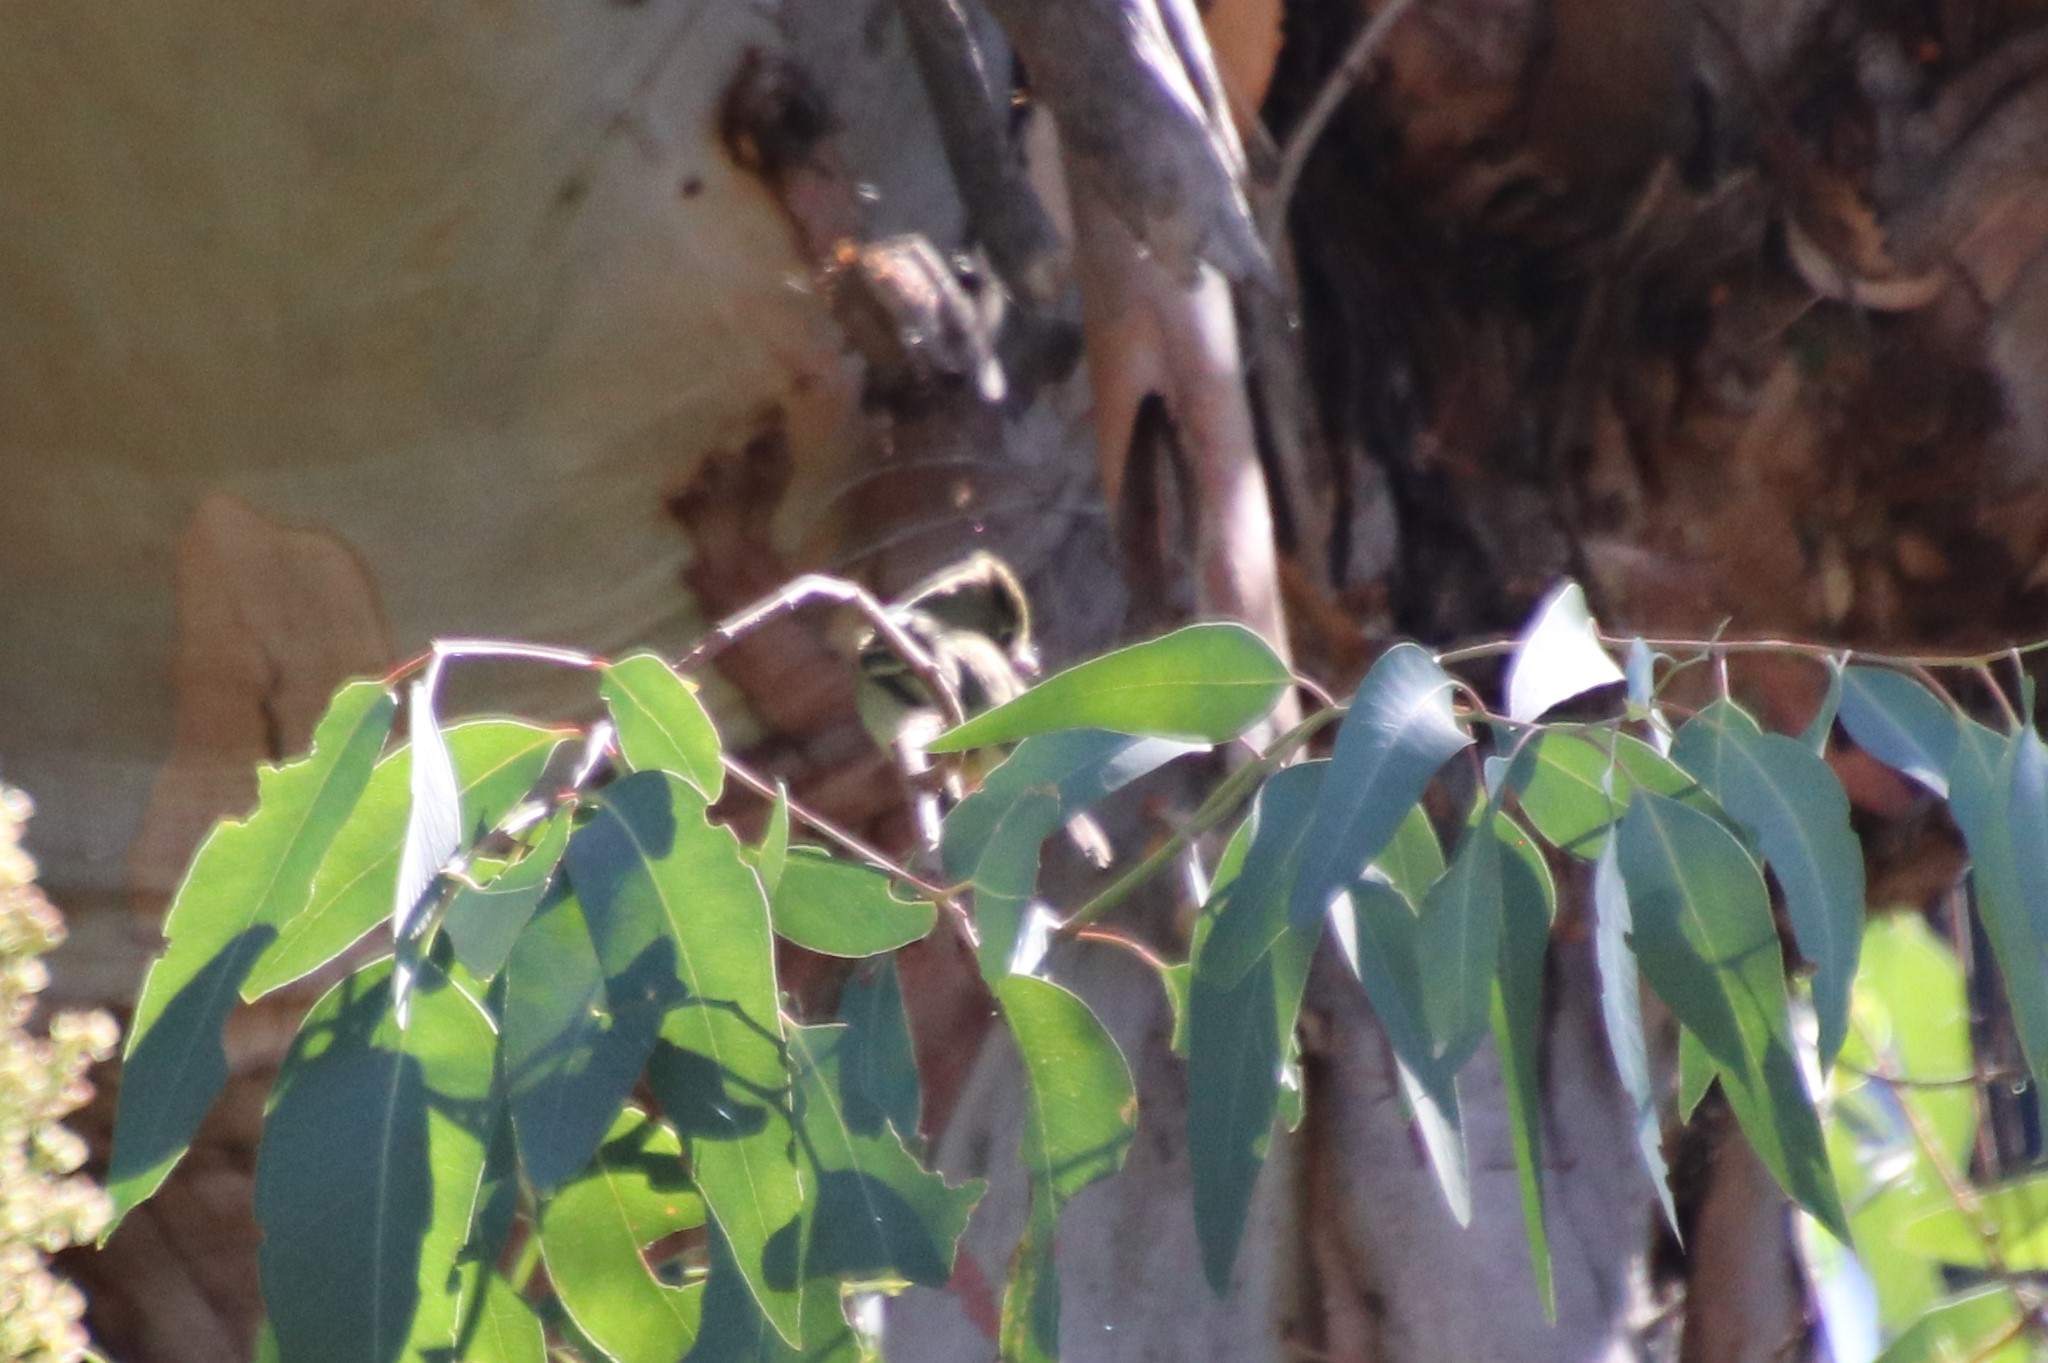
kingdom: Animalia
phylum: Chordata
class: Aves
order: Passeriformes
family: Tyrannidae
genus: Empidonax
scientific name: Empidonax difficilis
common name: Pacific-slope flycatcher
